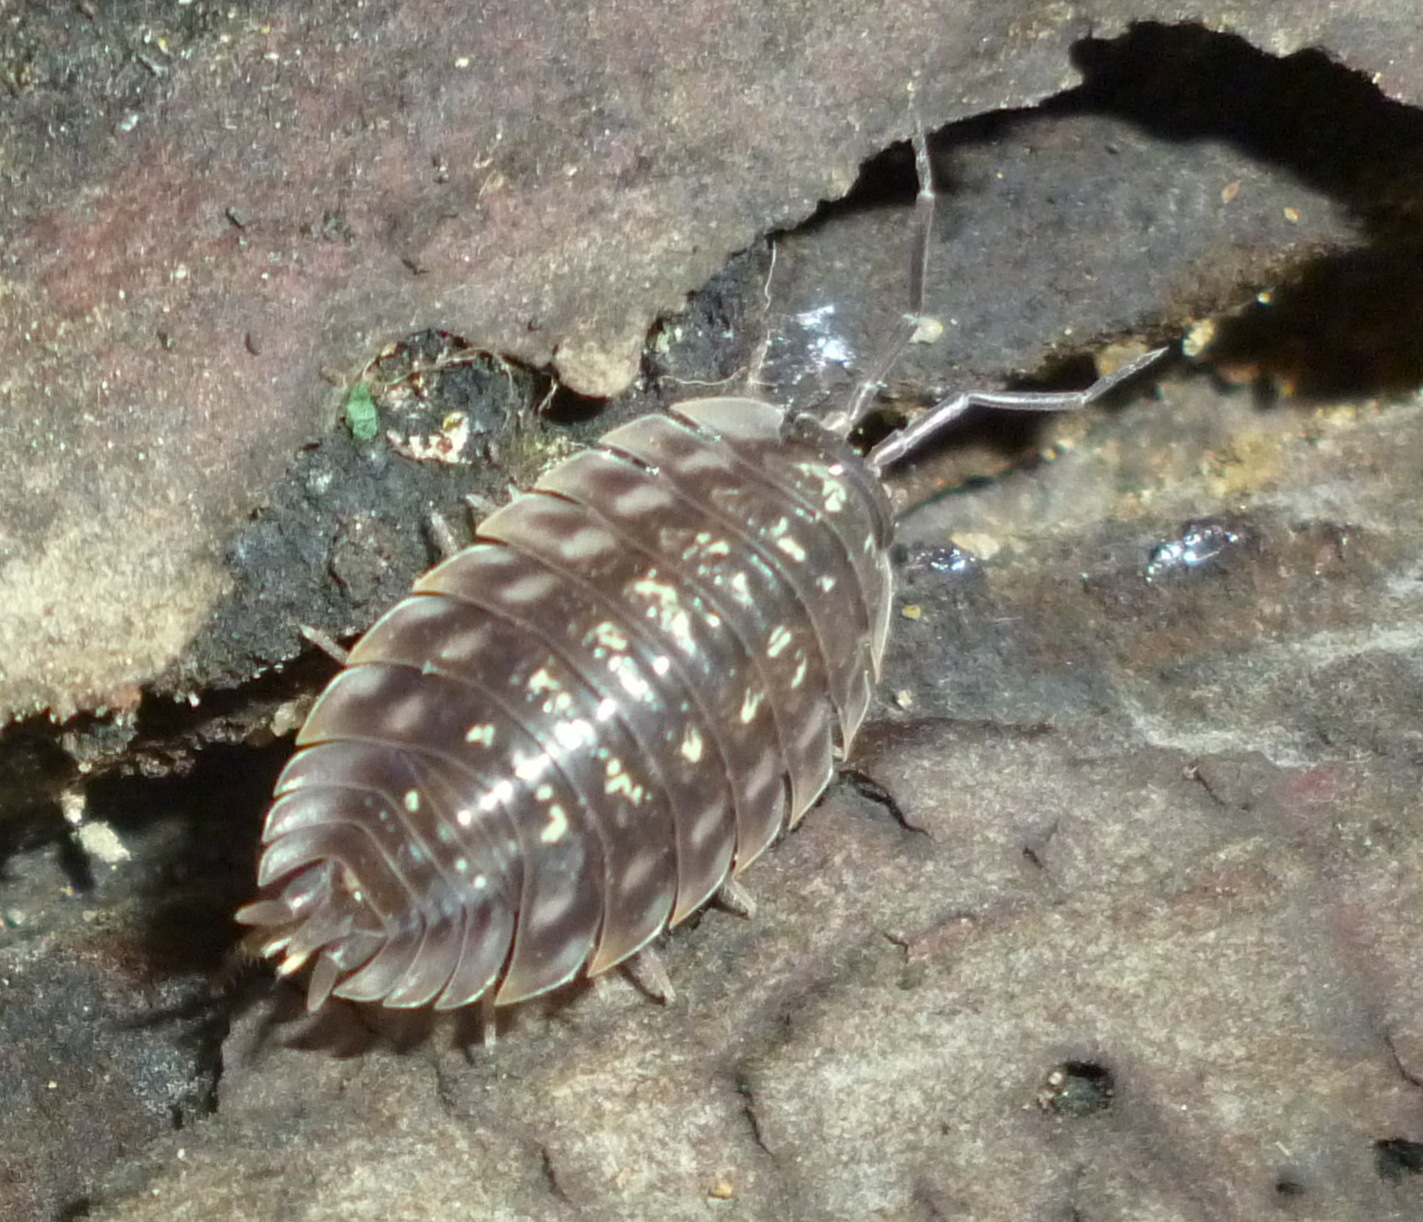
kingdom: Animalia
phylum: Arthropoda
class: Malacostraca
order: Isopoda
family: Oniscidae
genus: Oniscus
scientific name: Oniscus asellus
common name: Common shiny woodlouse
